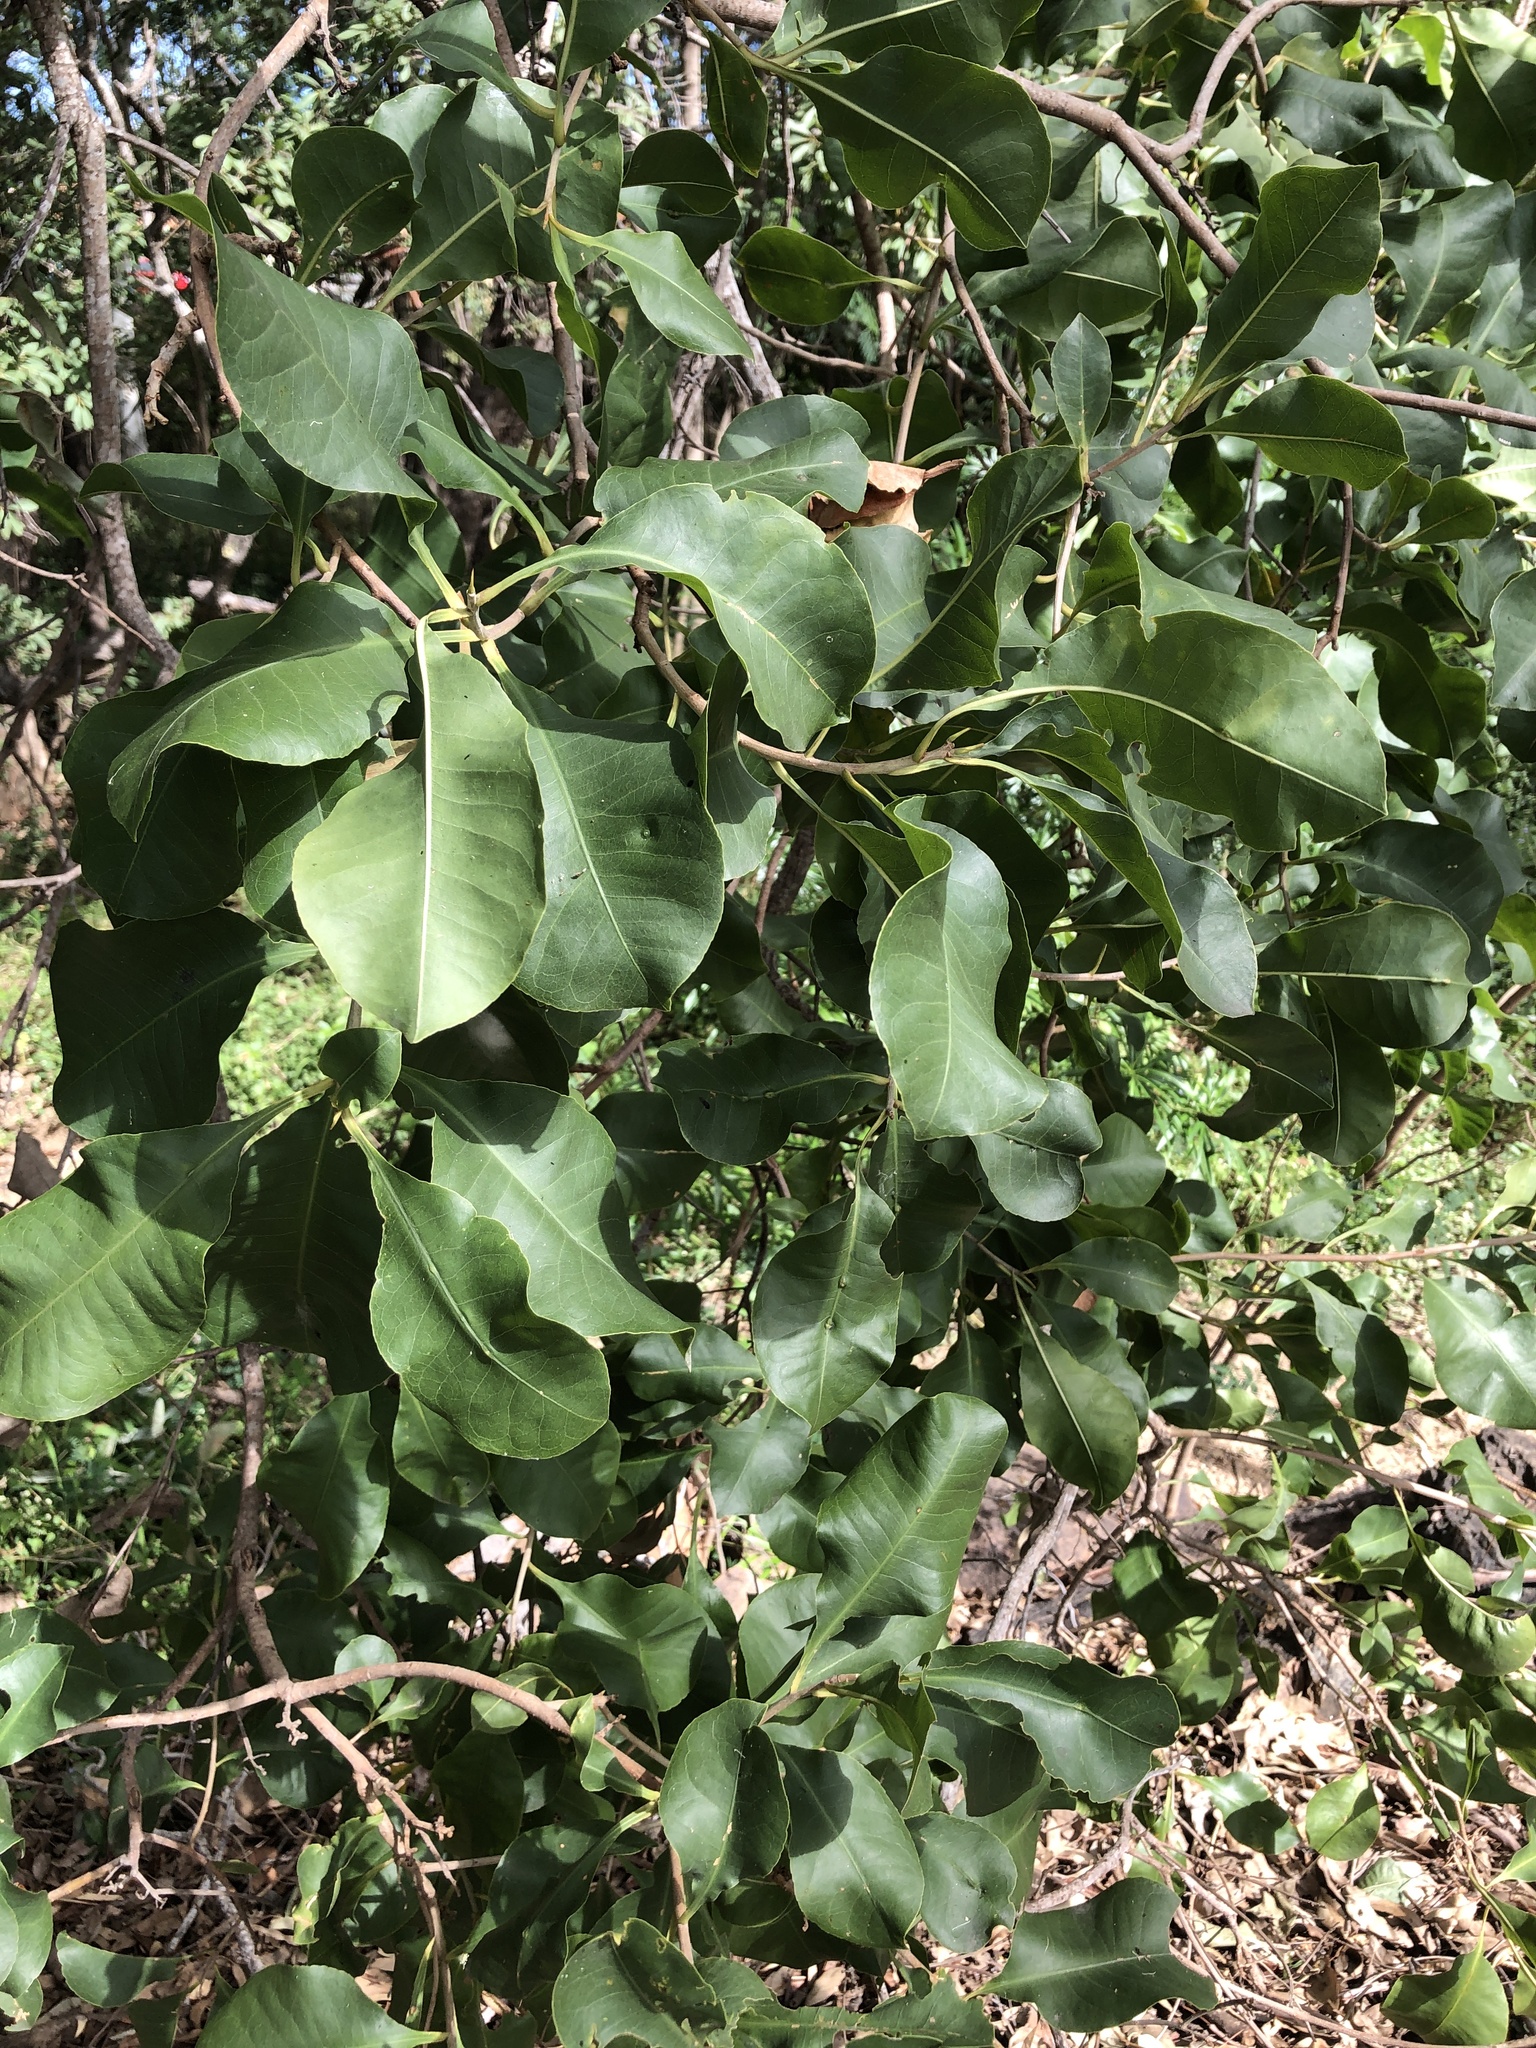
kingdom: Plantae
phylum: Tracheophyta
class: Magnoliopsida
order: Ericales
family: Lecythidaceae
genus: Planchonia
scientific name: Planchonia careya
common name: Cockatoo-apple
